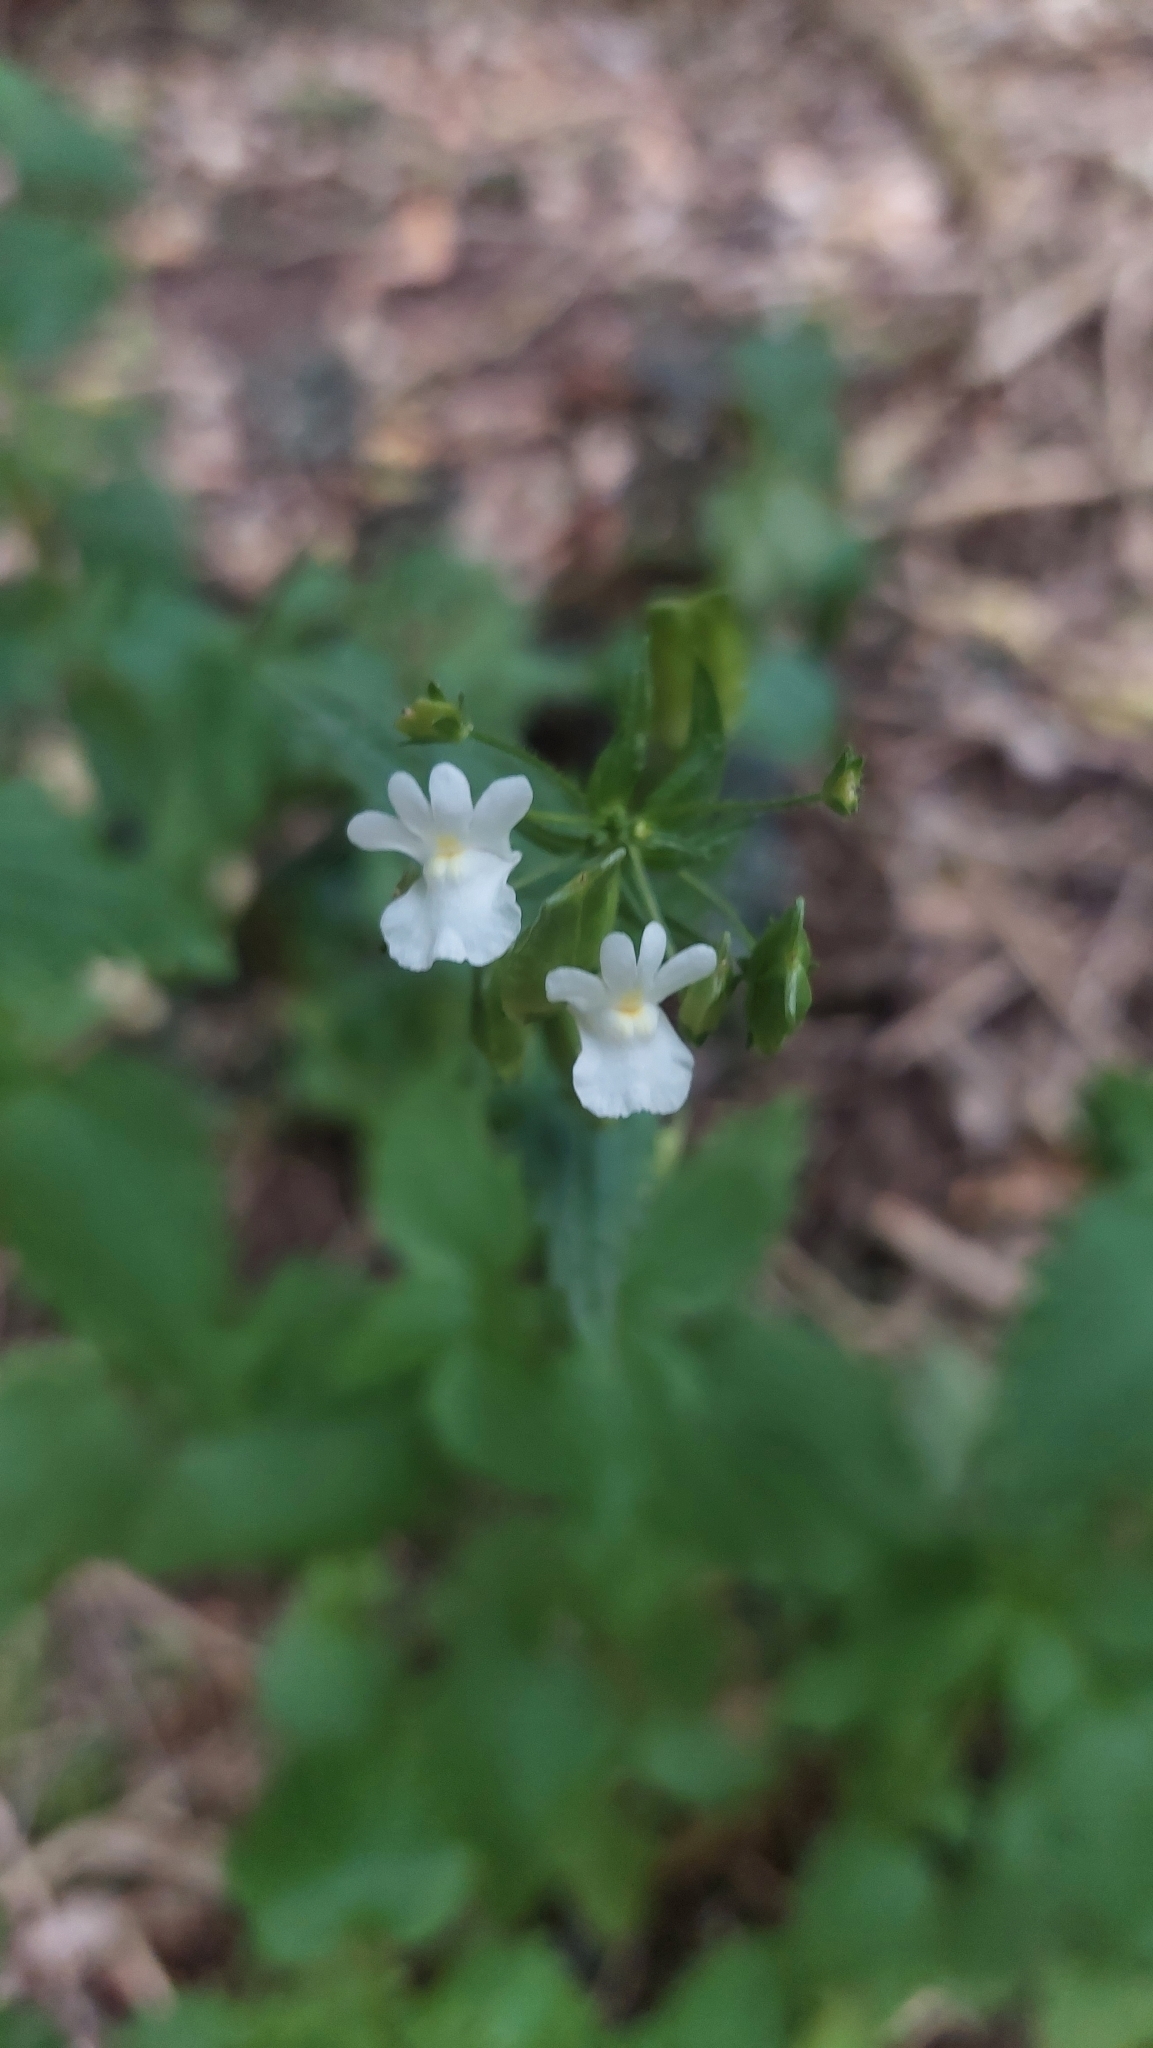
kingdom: Plantae
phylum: Tracheophyta
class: Magnoliopsida
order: Lamiales
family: Scrophulariaceae
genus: Nemesia
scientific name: Nemesia floribunda
